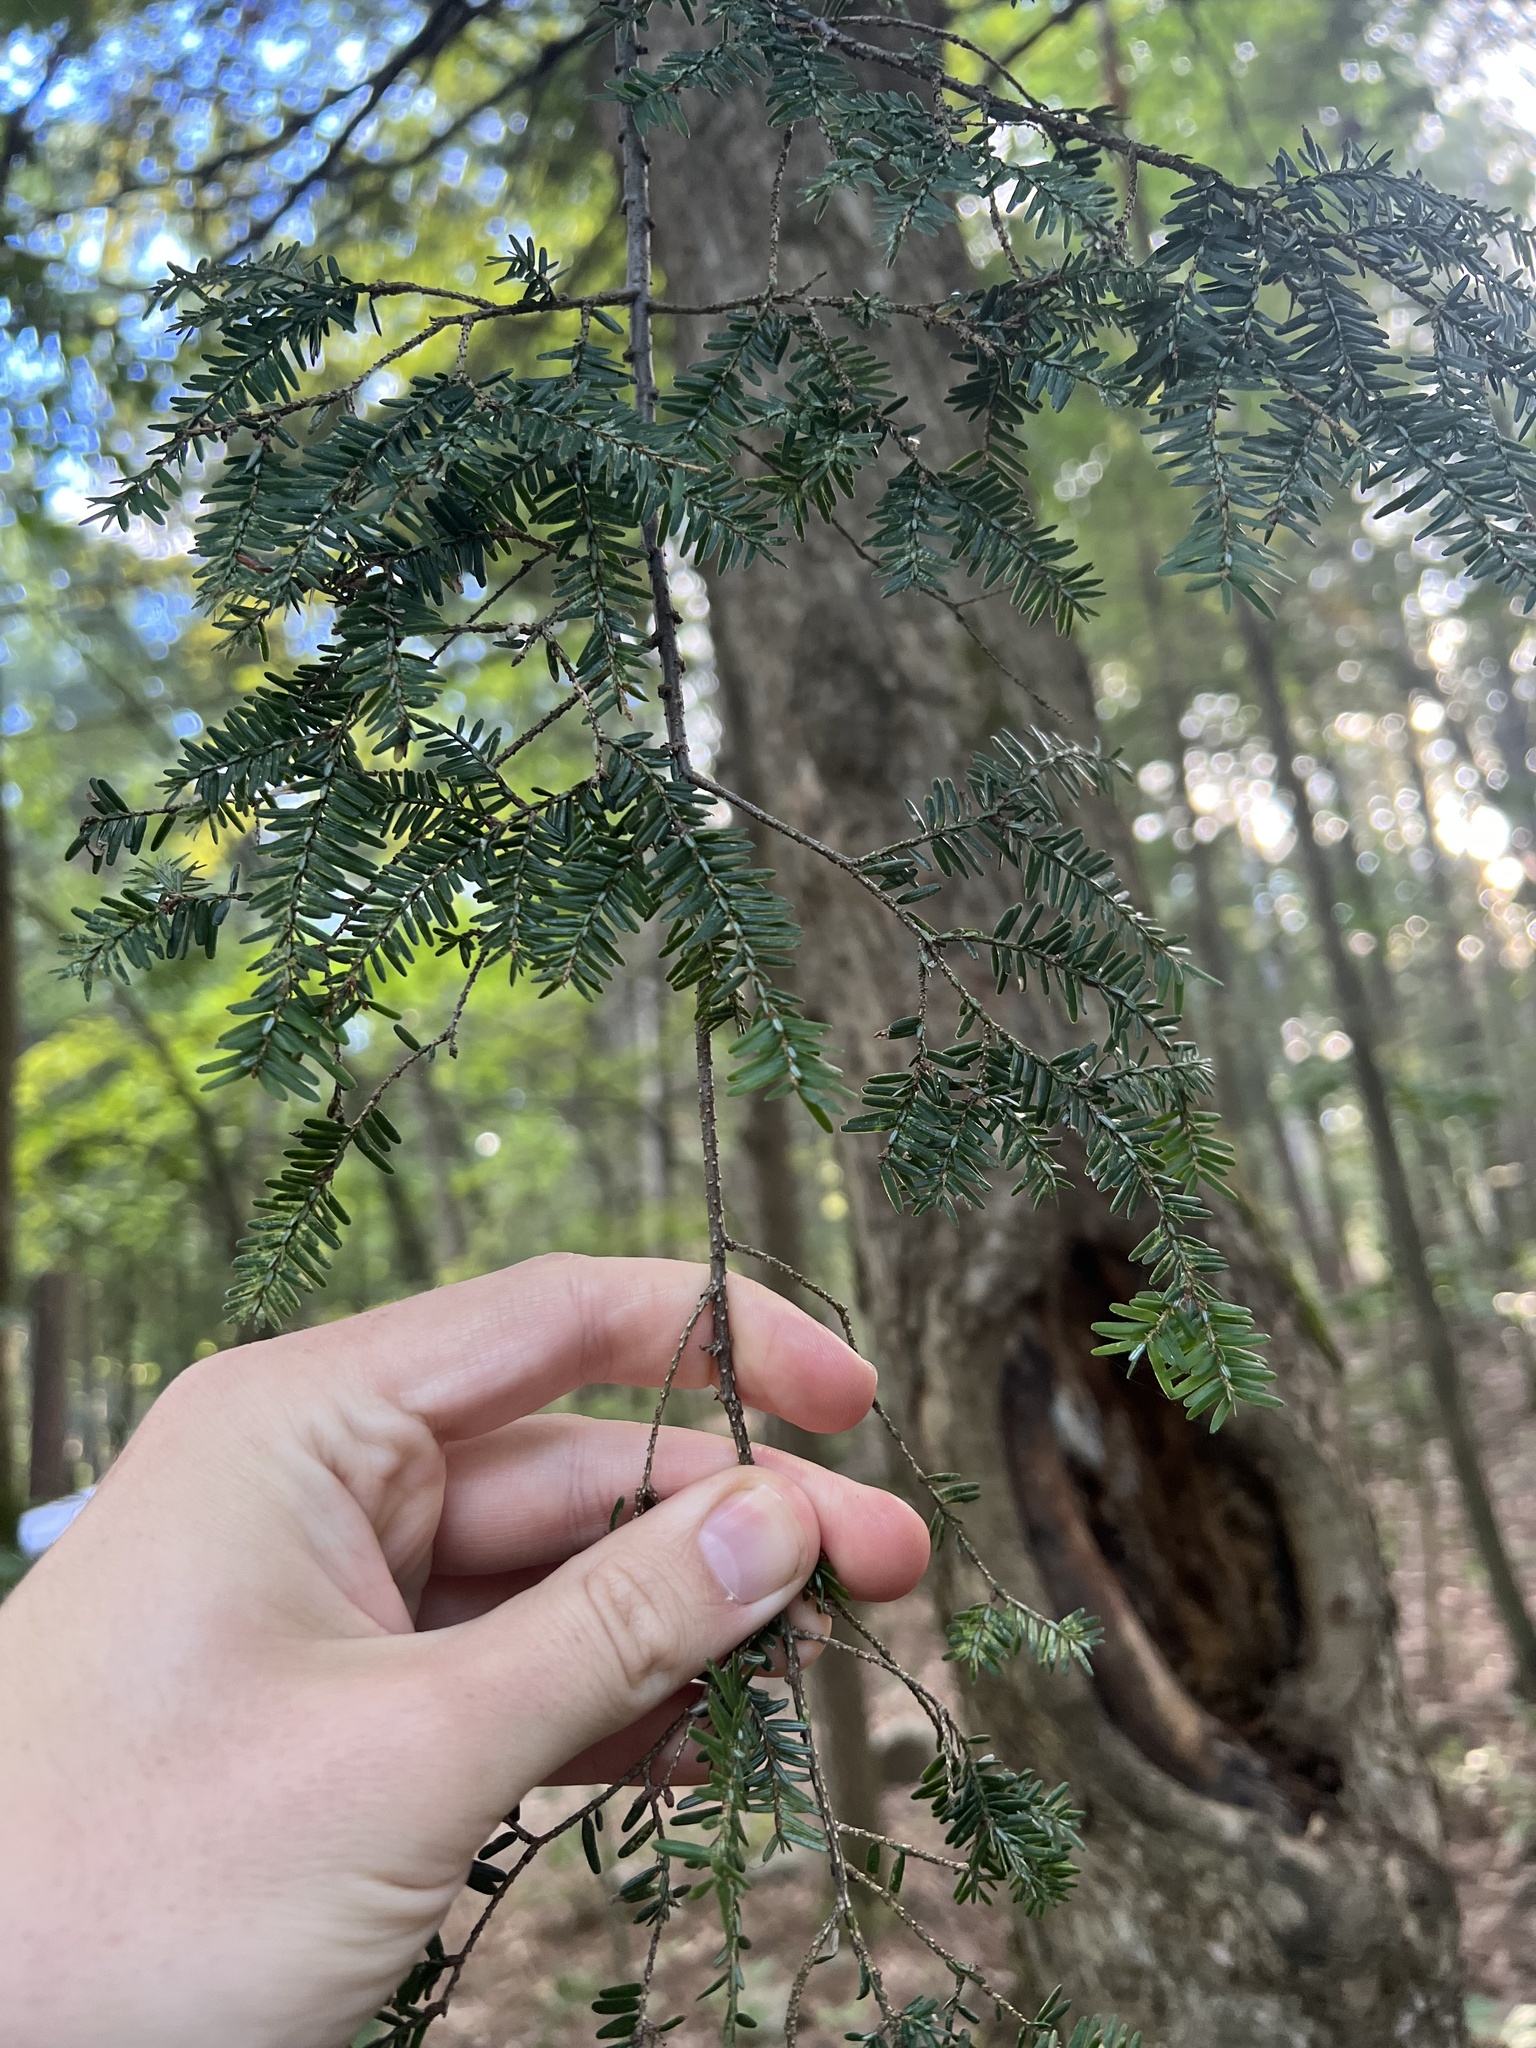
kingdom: Plantae
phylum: Tracheophyta
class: Pinopsida
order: Pinales
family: Pinaceae
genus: Tsuga
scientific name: Tsuga canadensis
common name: Eastern hemlock
